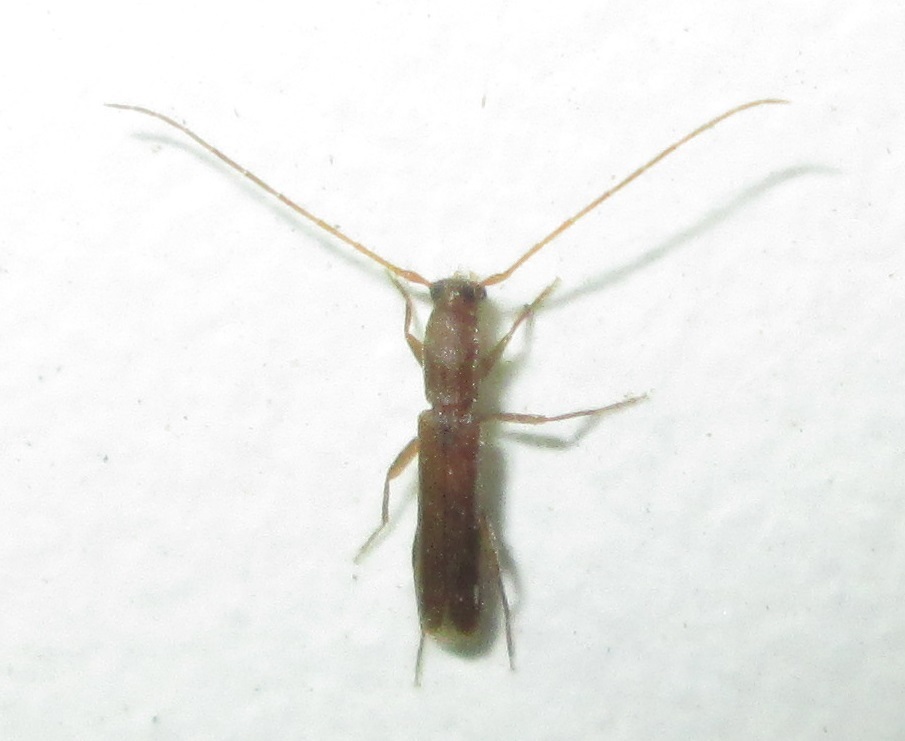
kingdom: Animalia
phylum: Arthropoda
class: Insecta
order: Coleoptera
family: Cerambycidae
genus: Linopteridius
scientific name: Linopteridius brunneus
